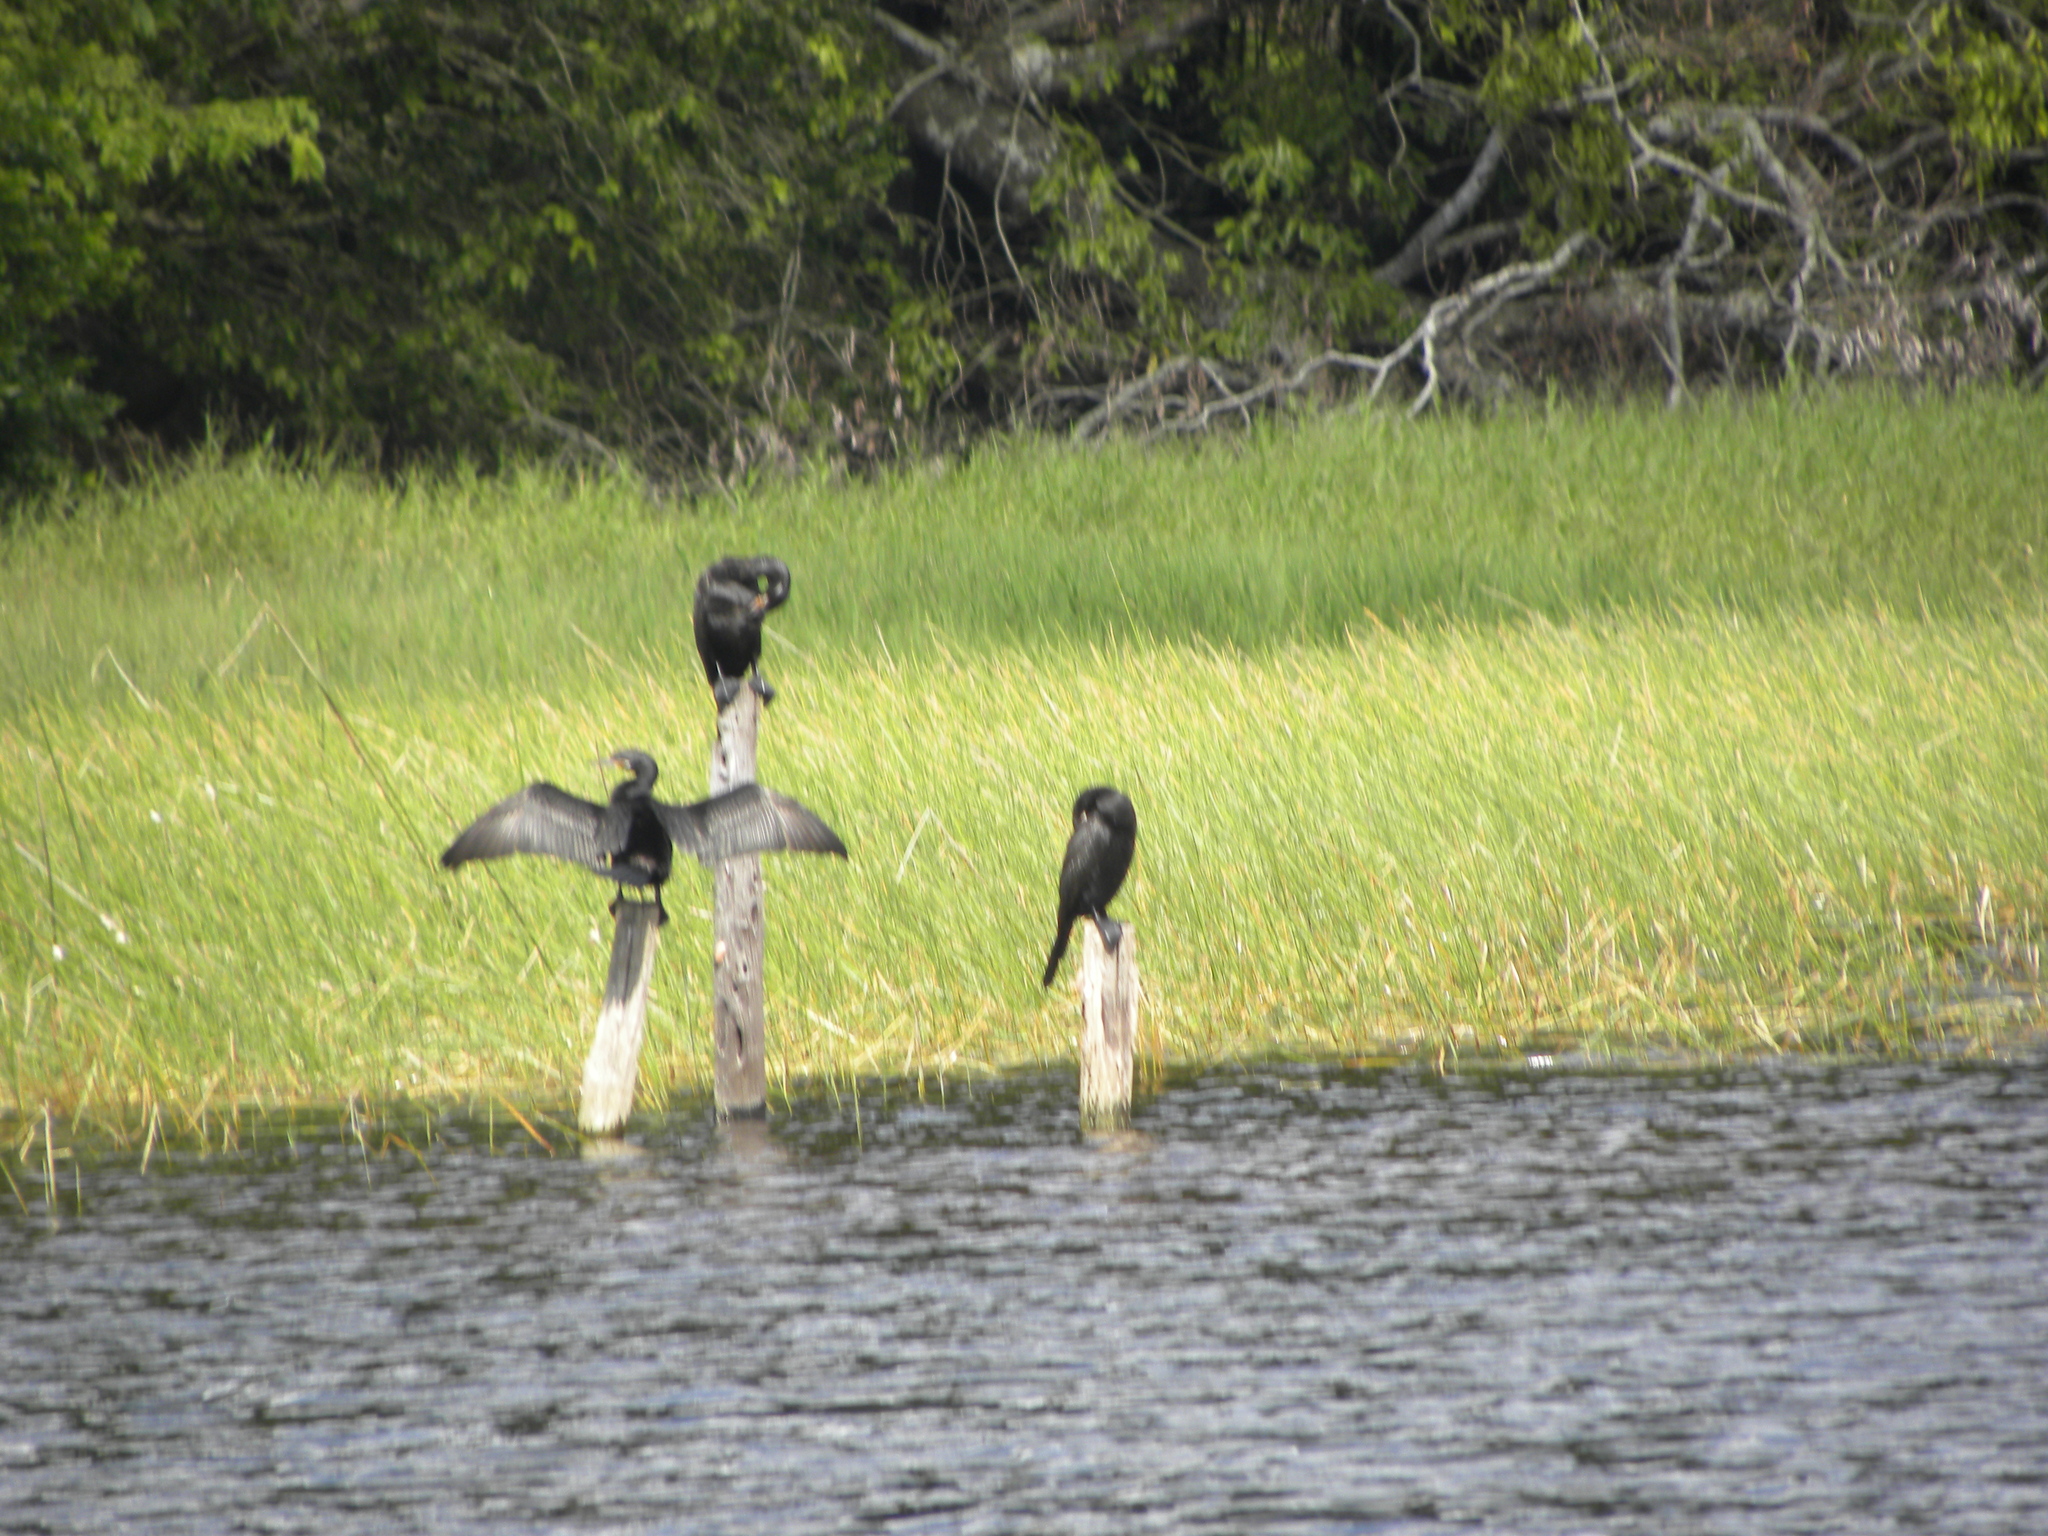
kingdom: Animalia
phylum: Chordata
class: Aves
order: Suliformes
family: Phalacrocoracidae
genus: Phalacrocorax
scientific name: Phalacrocorax brasilianus
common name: Neotropic cormorant
